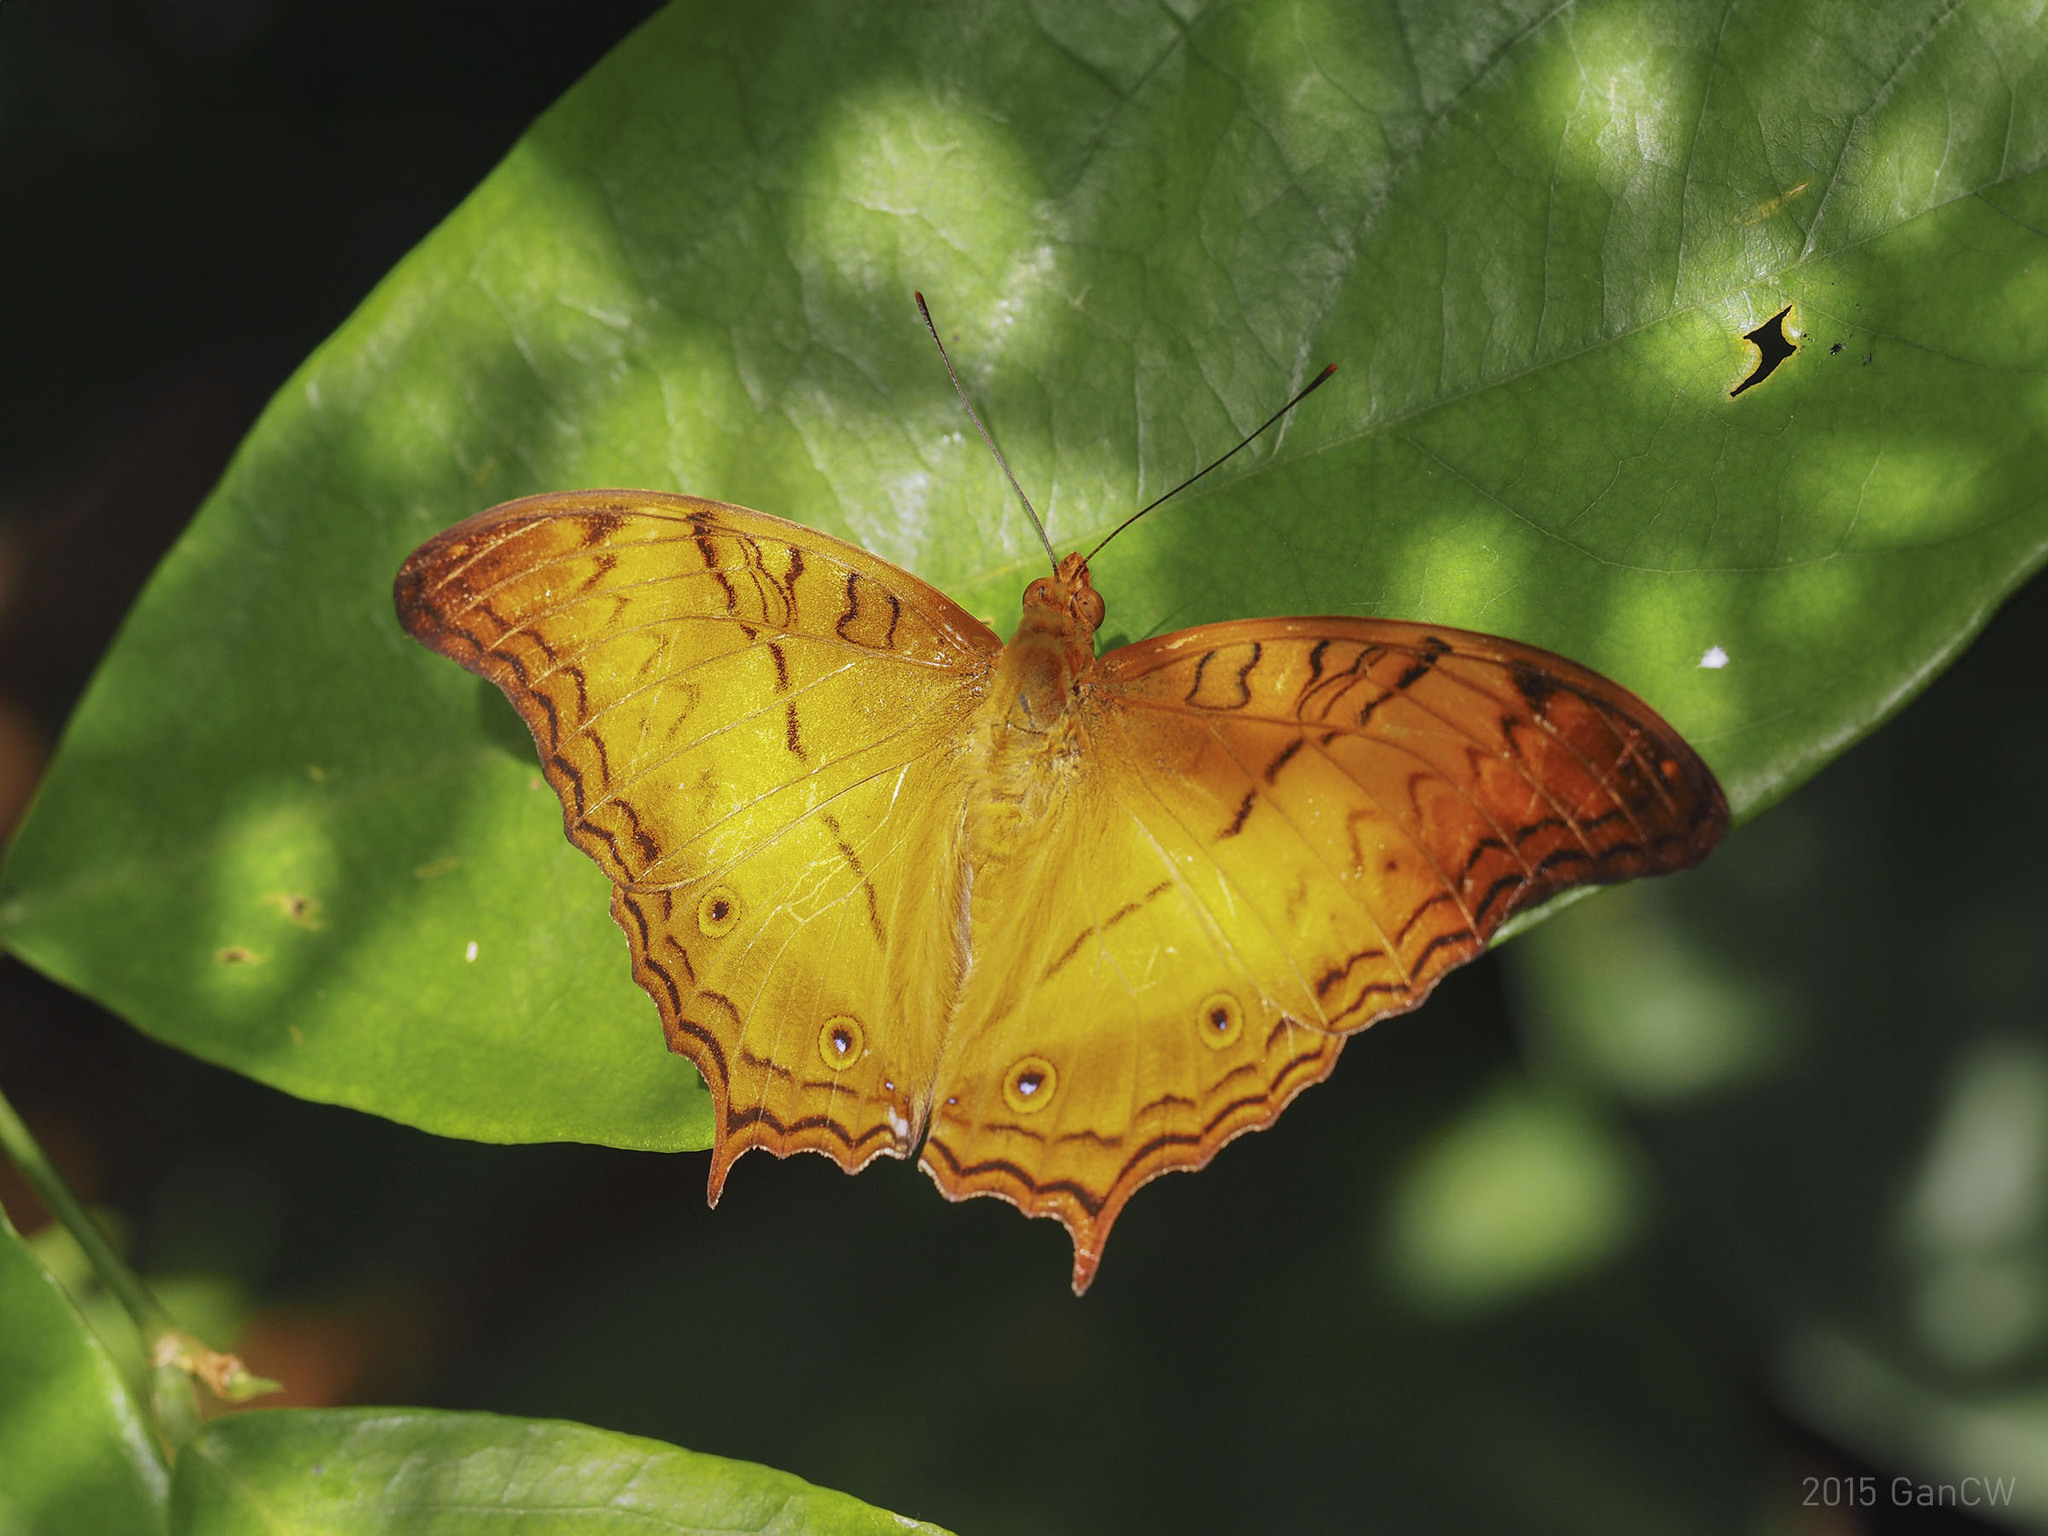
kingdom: Animalia
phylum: Arthropoda
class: Insecta
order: Lepidoptera
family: Nymphalidae
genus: Vindula
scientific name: Vindula deione
